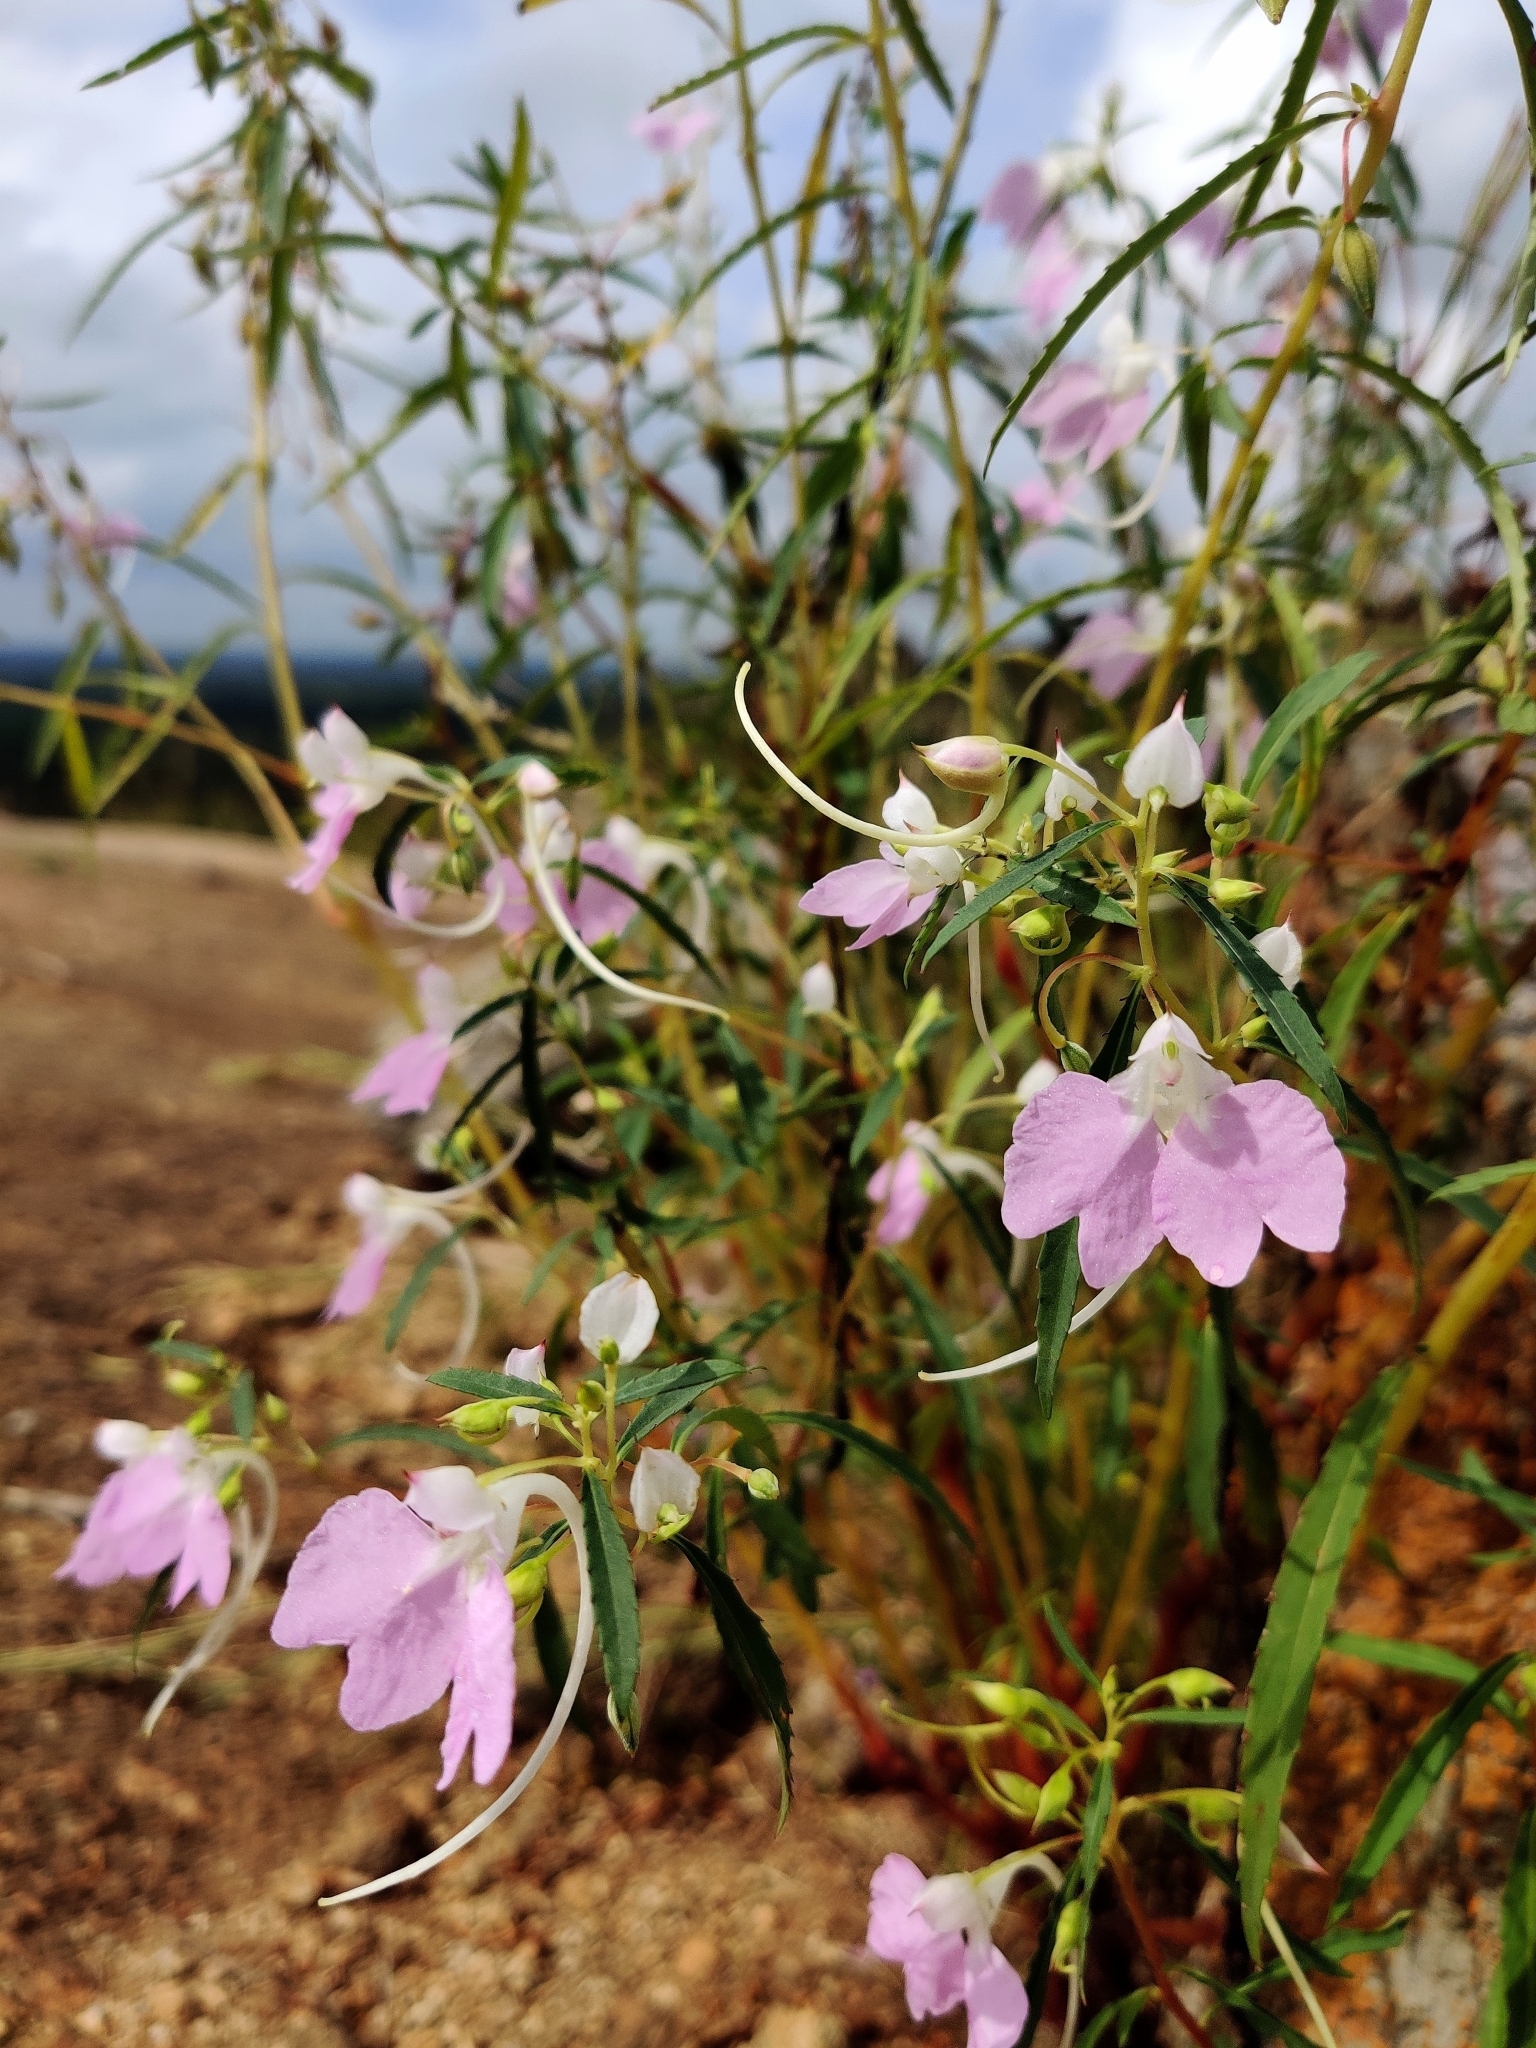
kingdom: Plantae
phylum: Tracheophyta
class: Magnoliopsida
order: Ericales
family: Balsaminaceae
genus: Impatiens
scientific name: Impatiens balsamina
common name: Balsam
